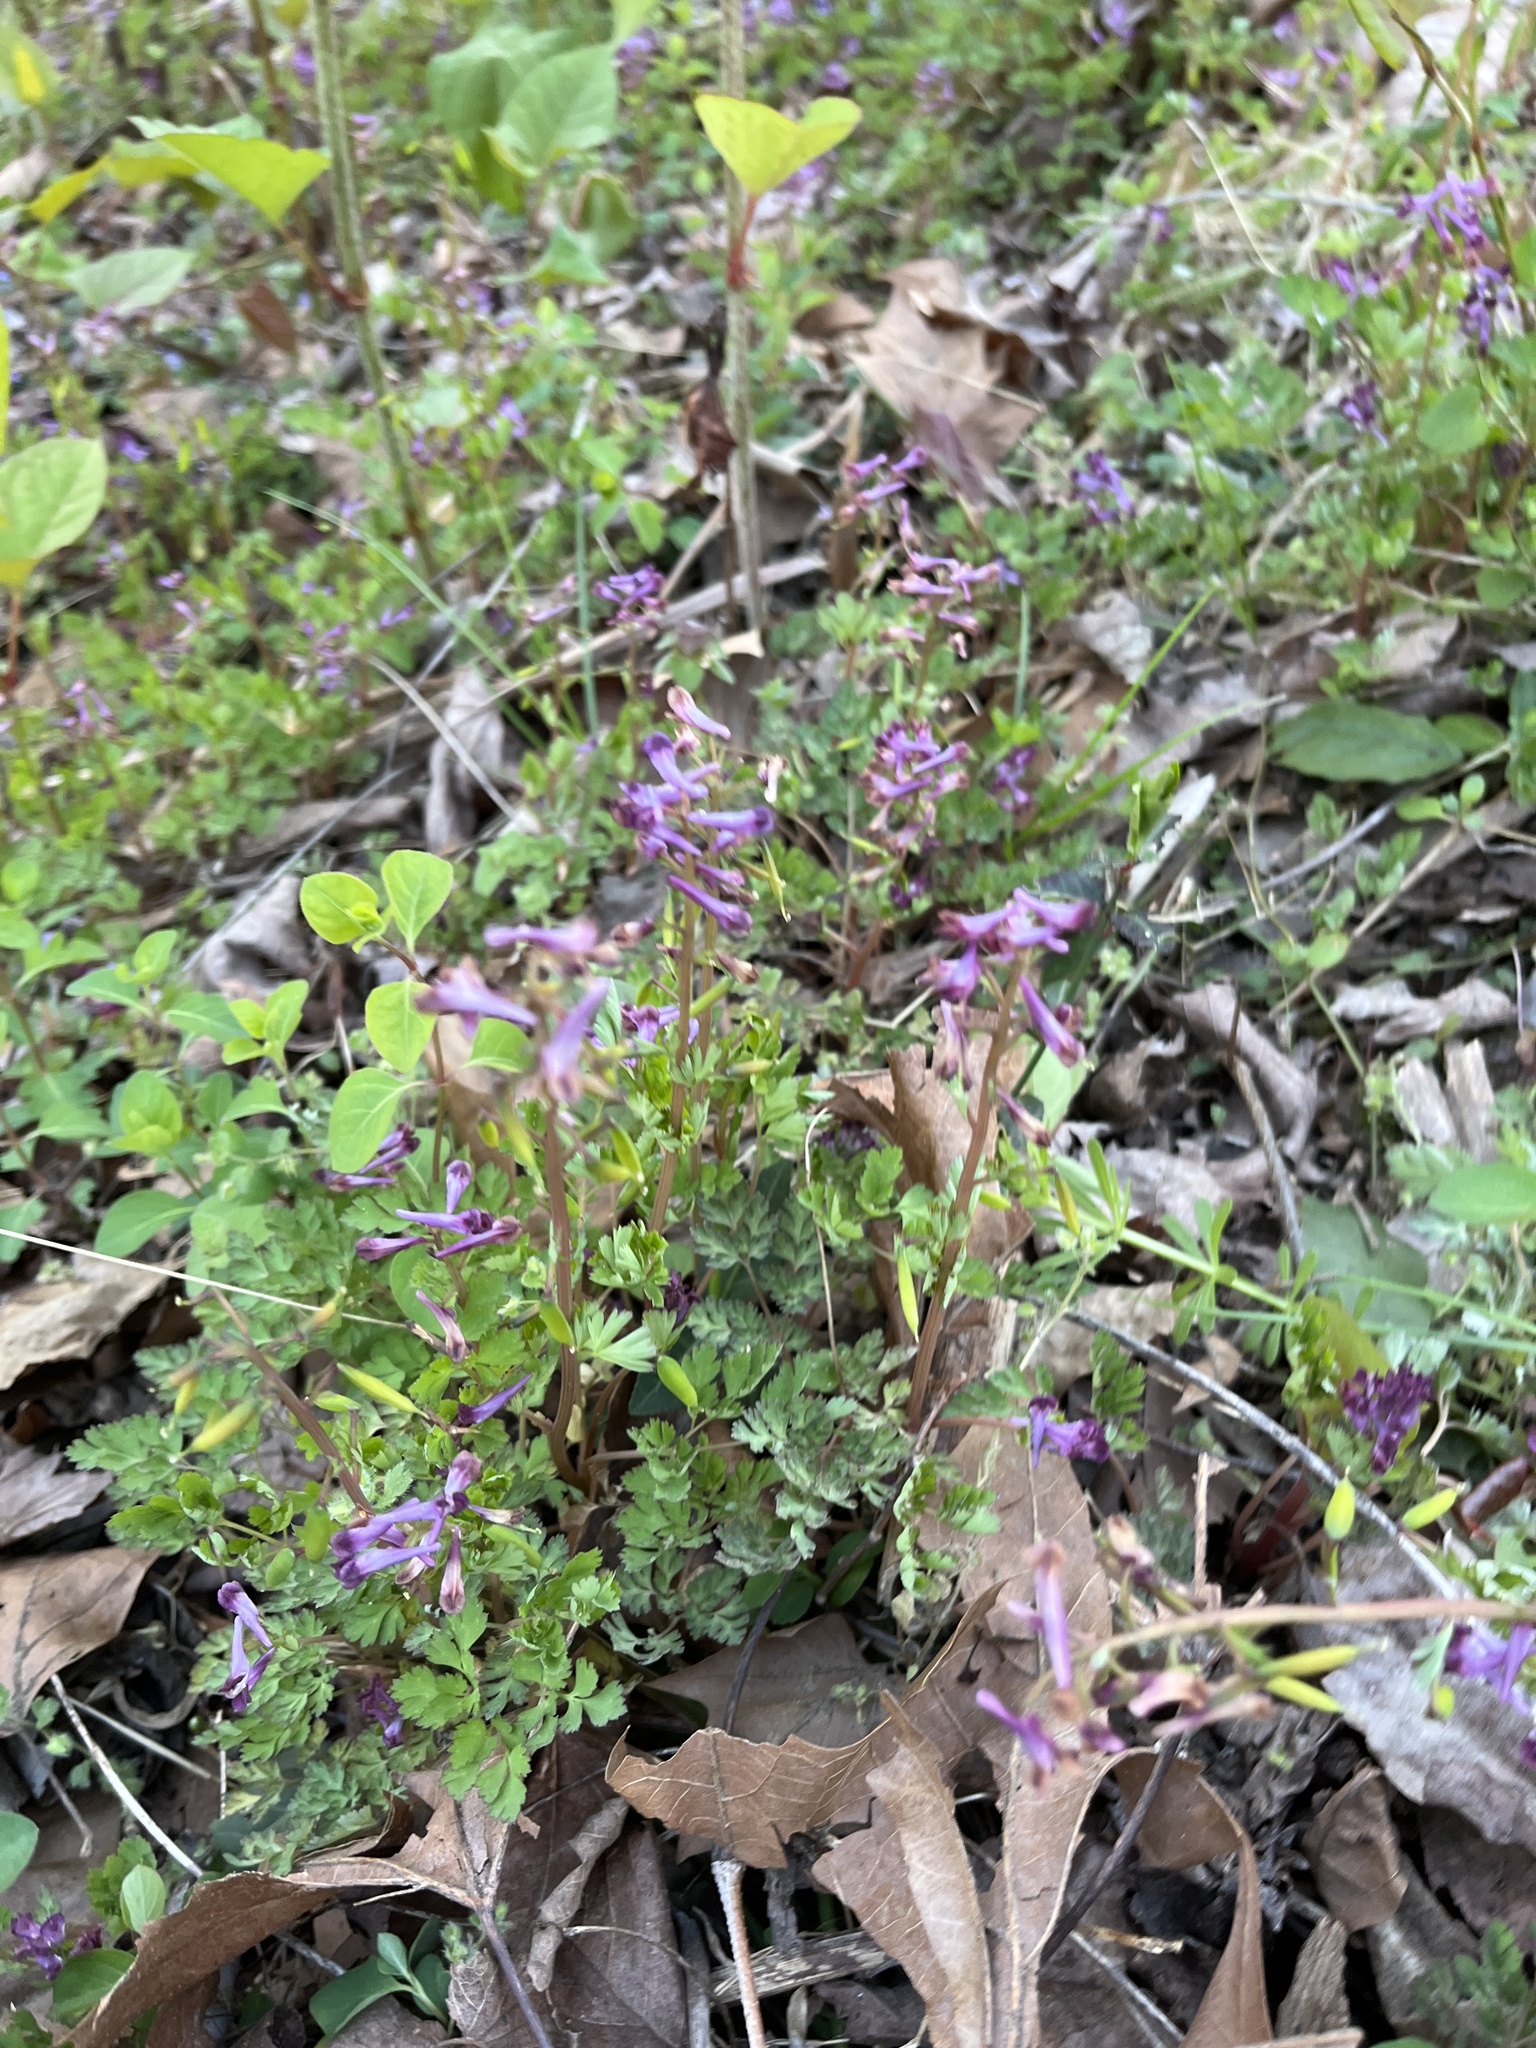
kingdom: Plantae
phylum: Tracheophyta
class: Magnoliopsida
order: Ranunculales
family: Papaveraceae
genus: Corydalis
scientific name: Corydalis incisa
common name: Incised fumewort
